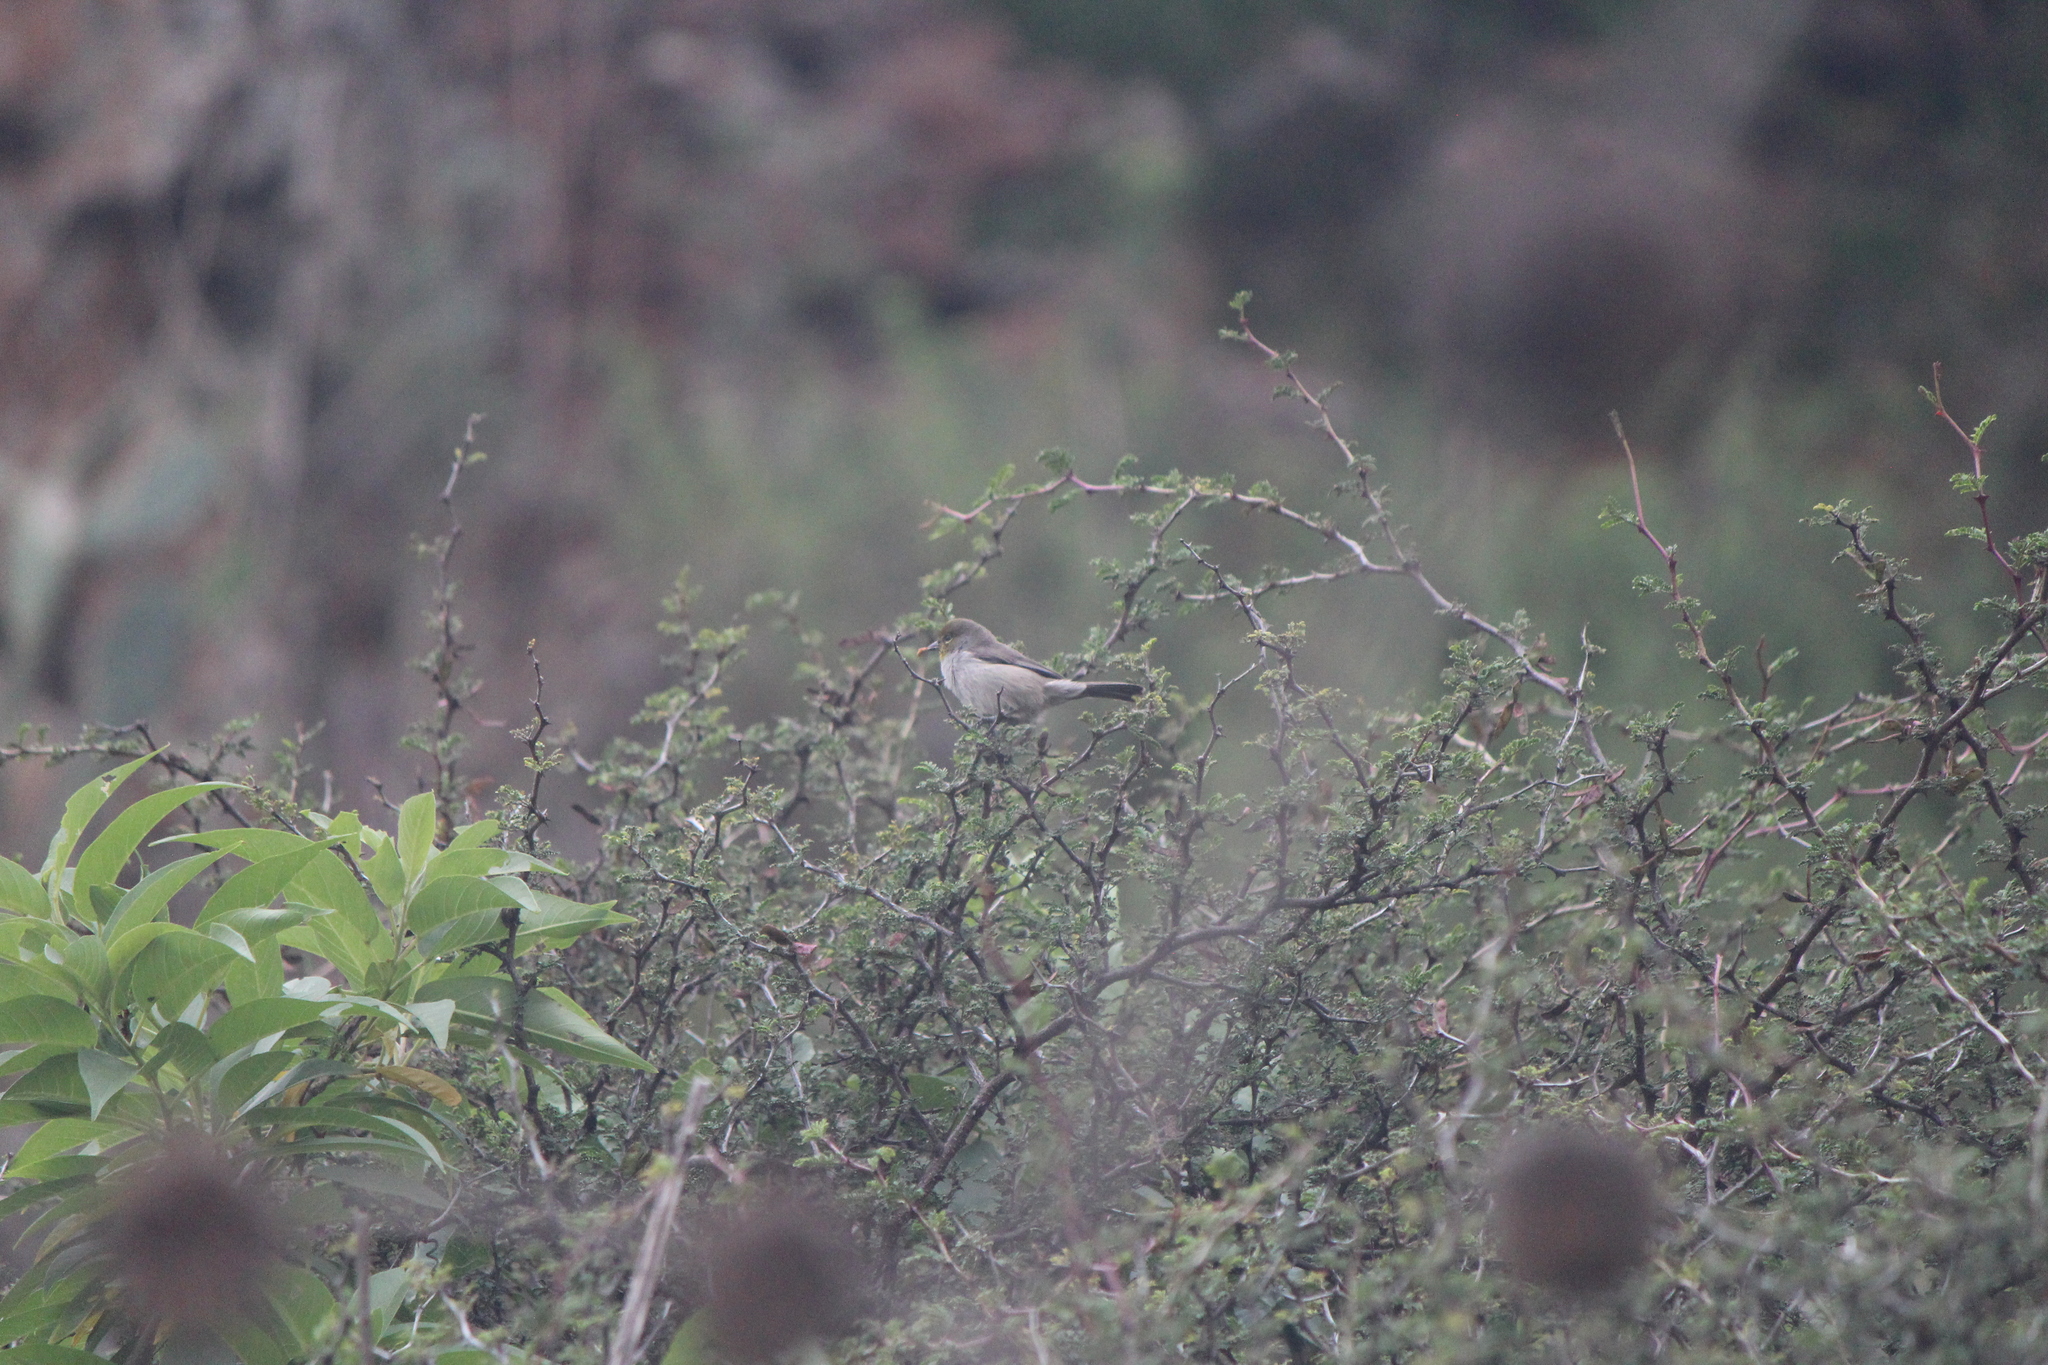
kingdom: Animalia
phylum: Chordata
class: Aves
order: Passeriformes
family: Remizidae
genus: Auriparus
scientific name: Auriparus flaviceps
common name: Verdin
